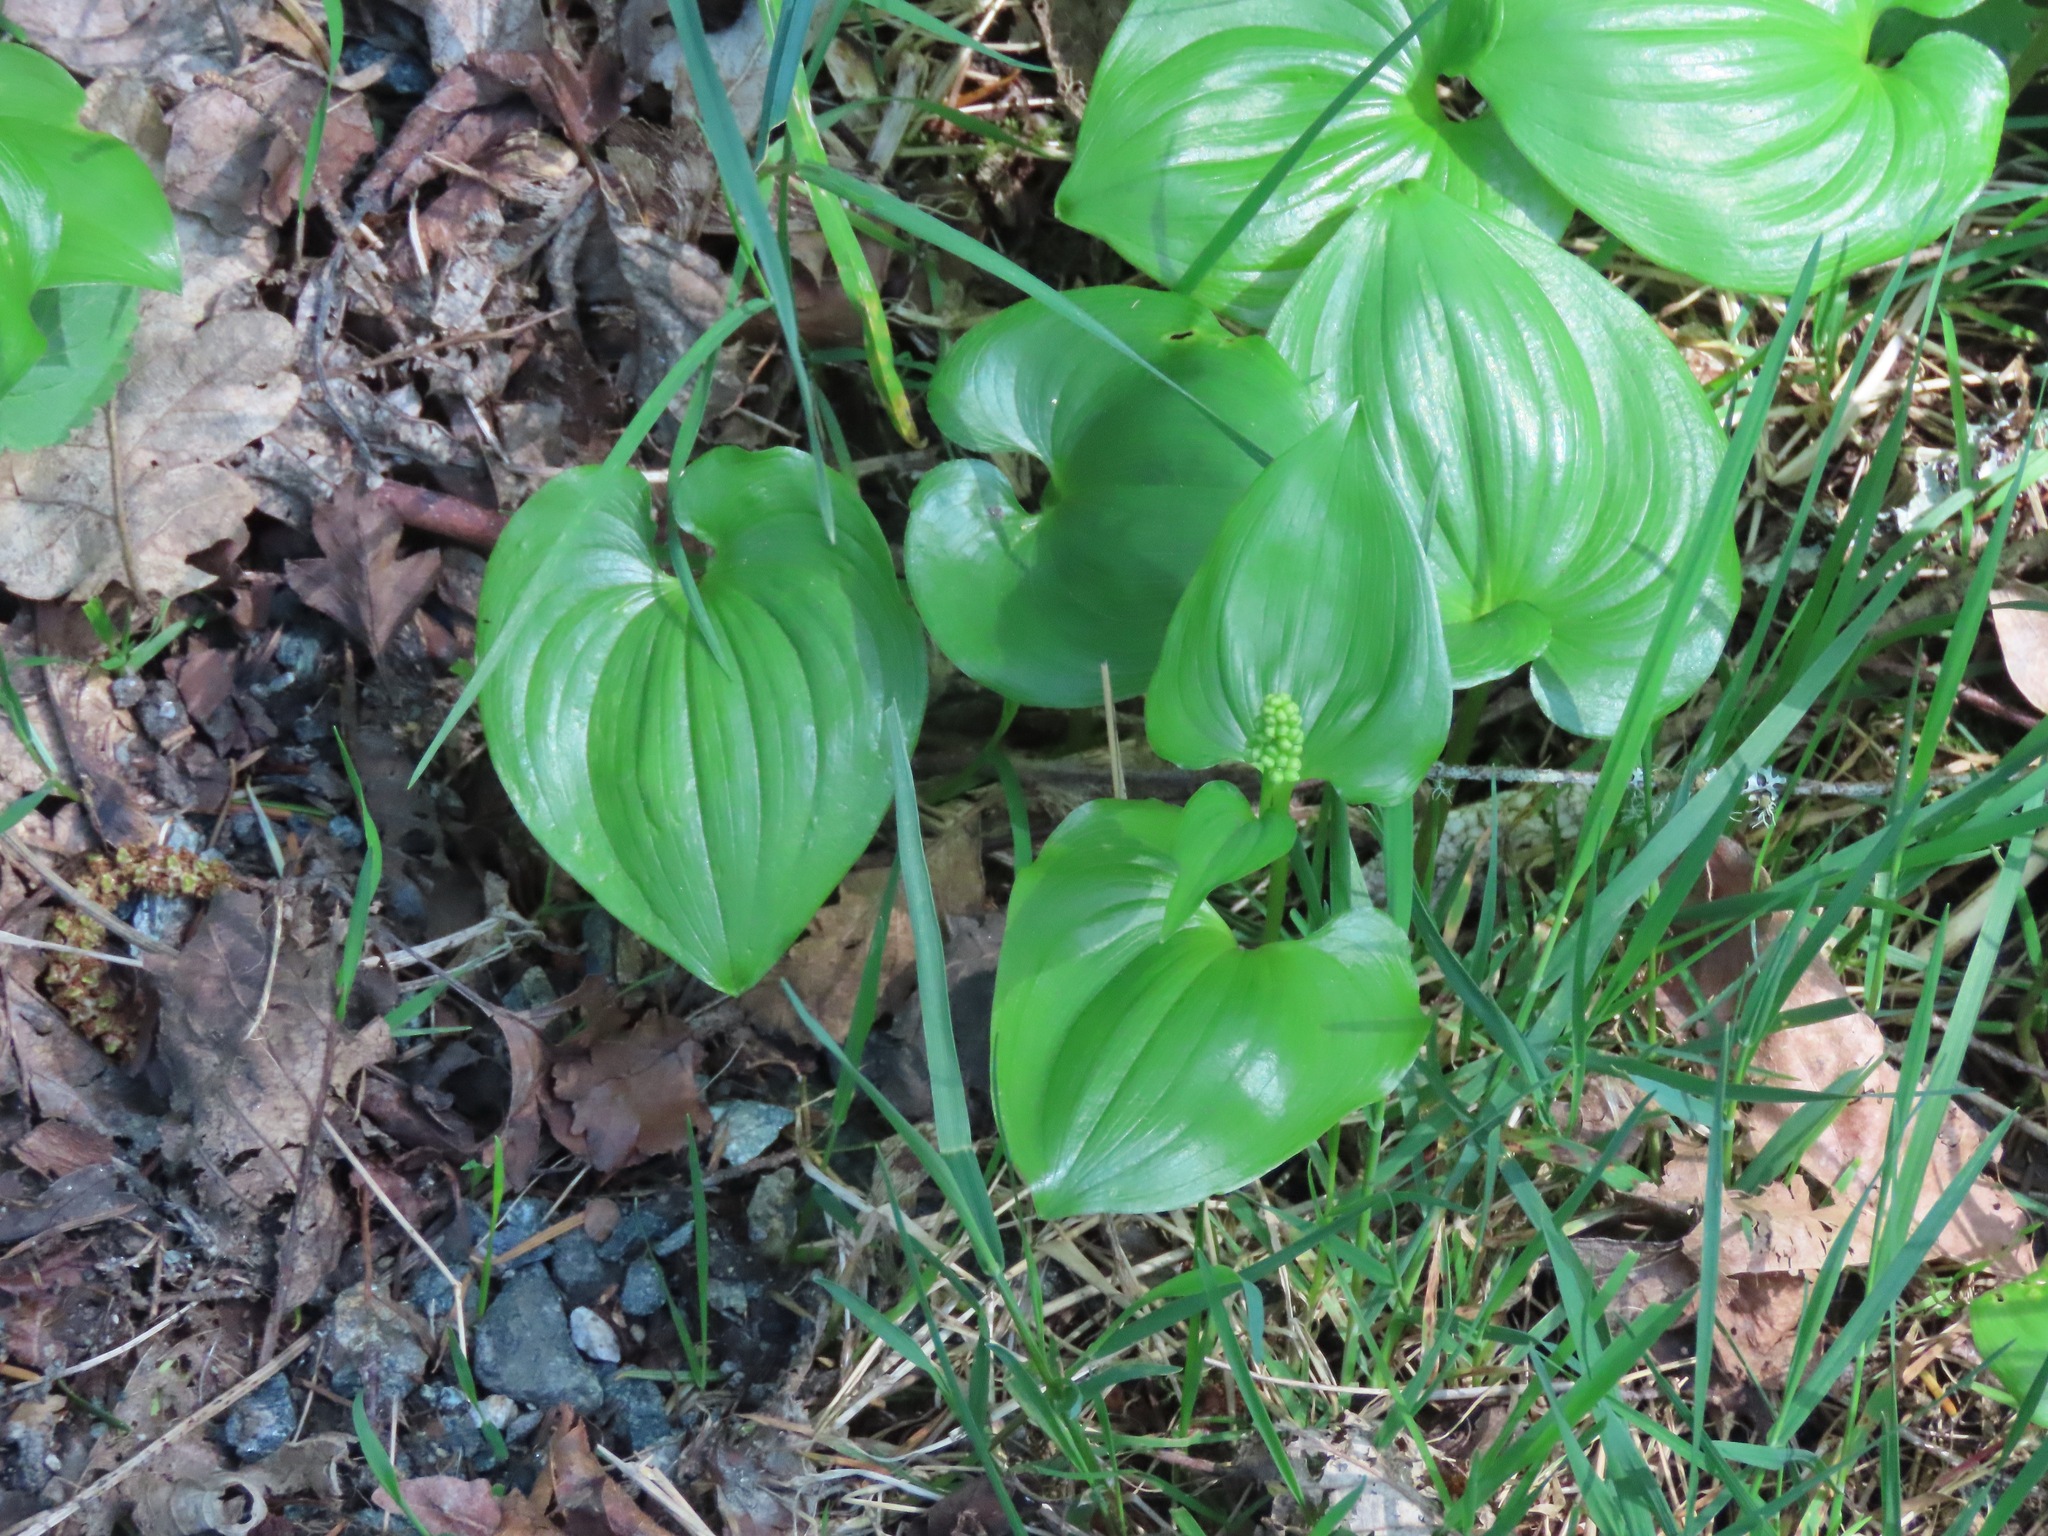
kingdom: Plantae
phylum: Tracheophyta
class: Liliopsida
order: Asparagales
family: Asparagaceae
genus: Maianthemum
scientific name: Maianthemum dilatatum
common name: False lily-of-the-valley
